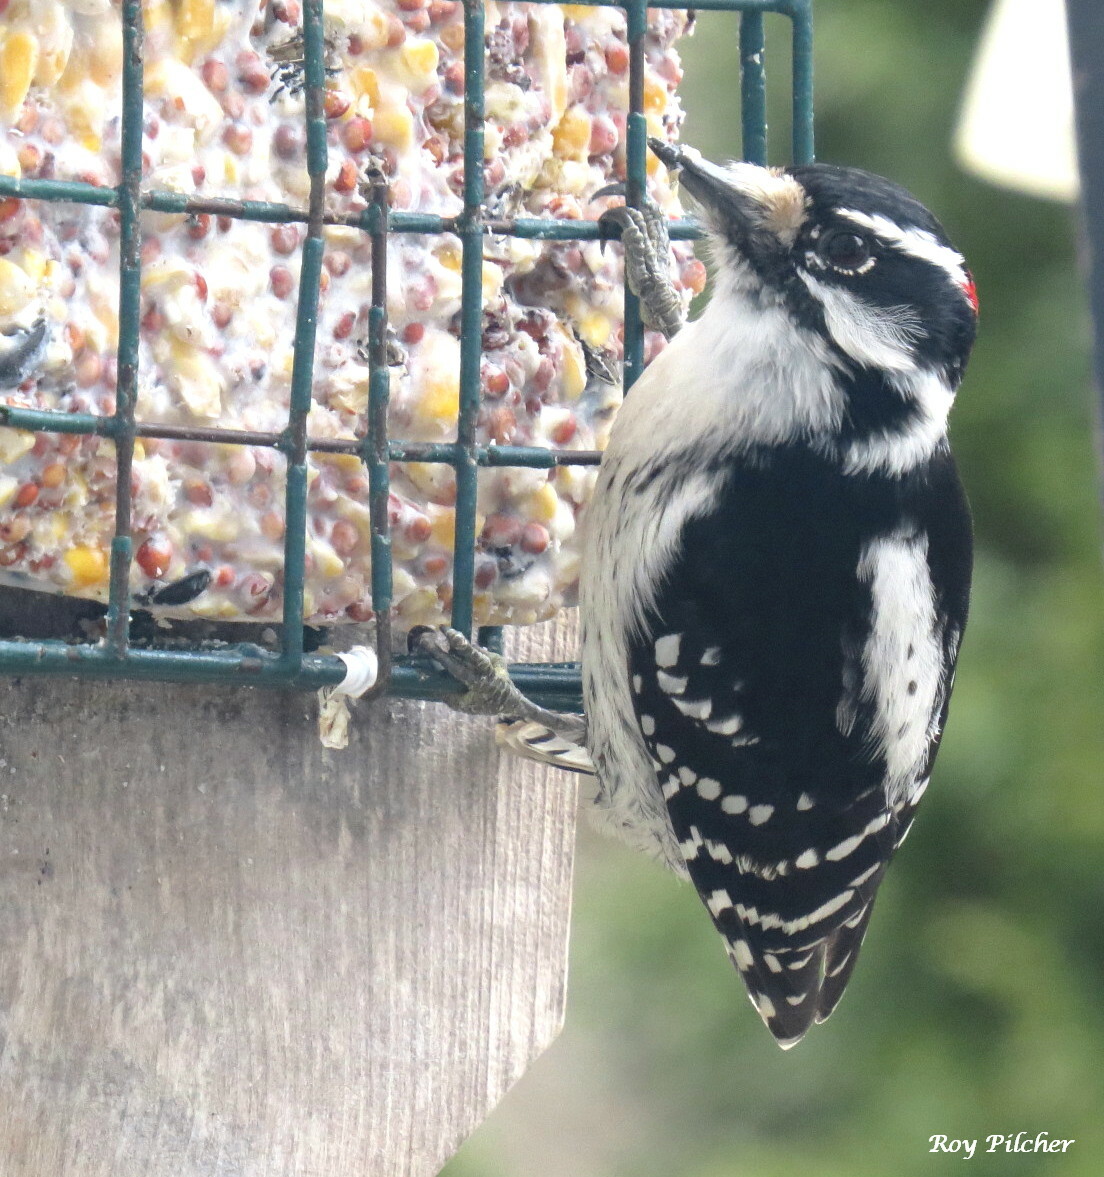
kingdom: Animalia
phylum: Chordata
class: Aves
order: Piciformes
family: Picidae
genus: Dryobates
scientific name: Dryobates pubescens
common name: Downy woodpecker
